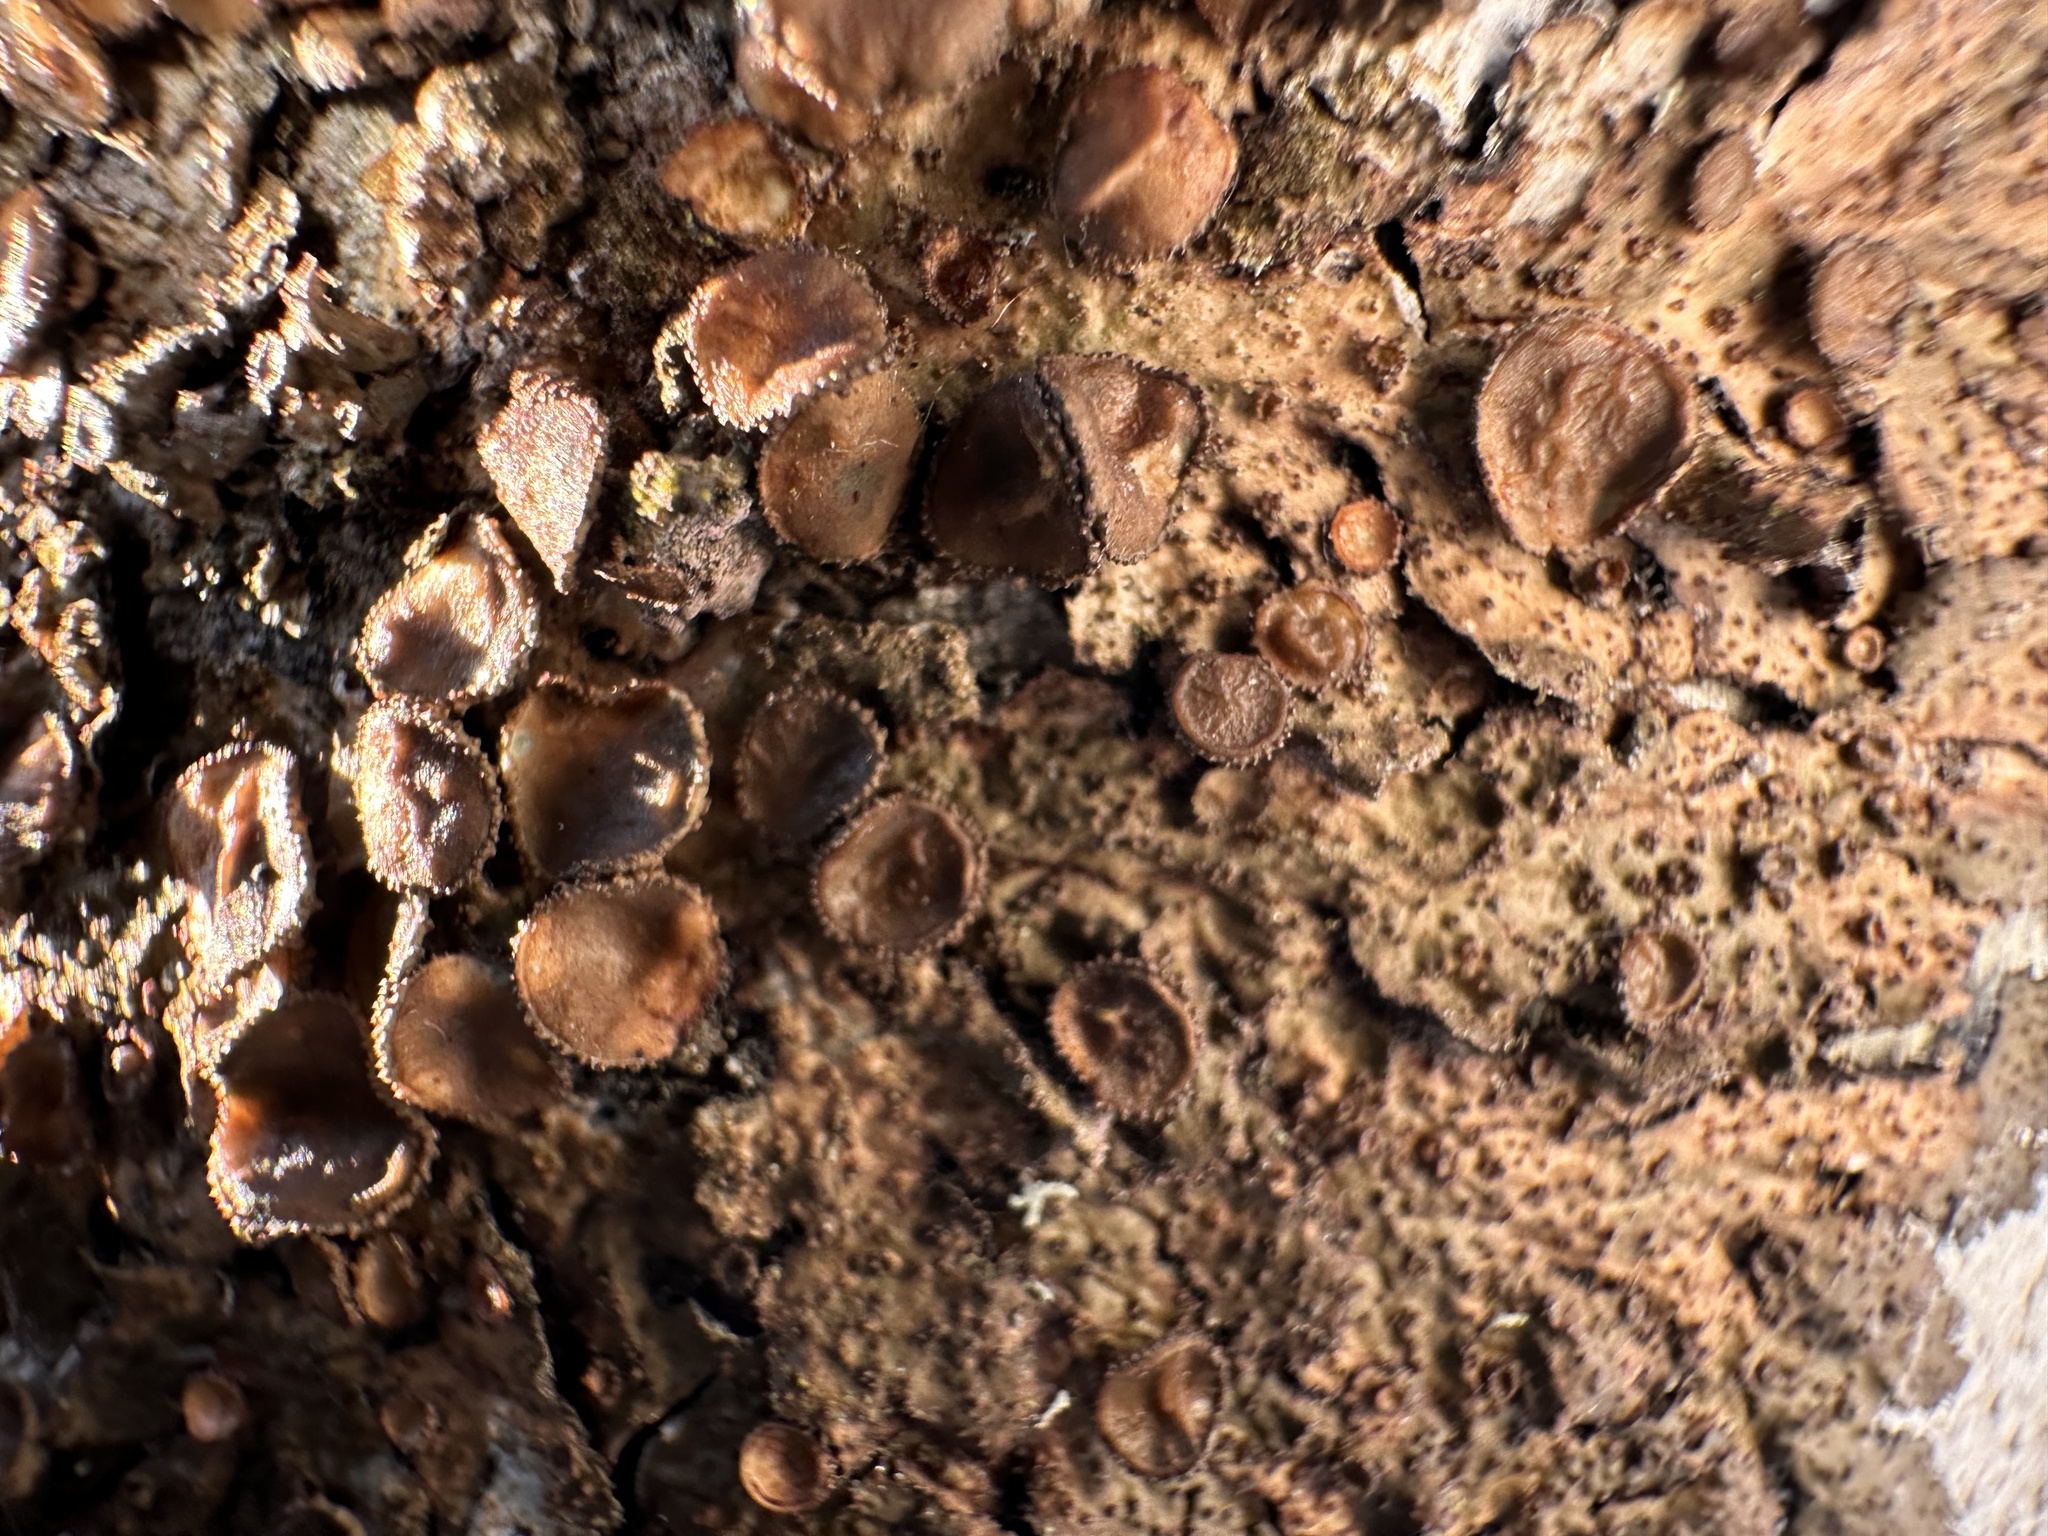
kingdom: Fungi
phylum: Ascomycota
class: Lecanoromycetes
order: Lecanorales
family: Parmeliaceae
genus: Melanohalea
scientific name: Melanohalea exasperata
